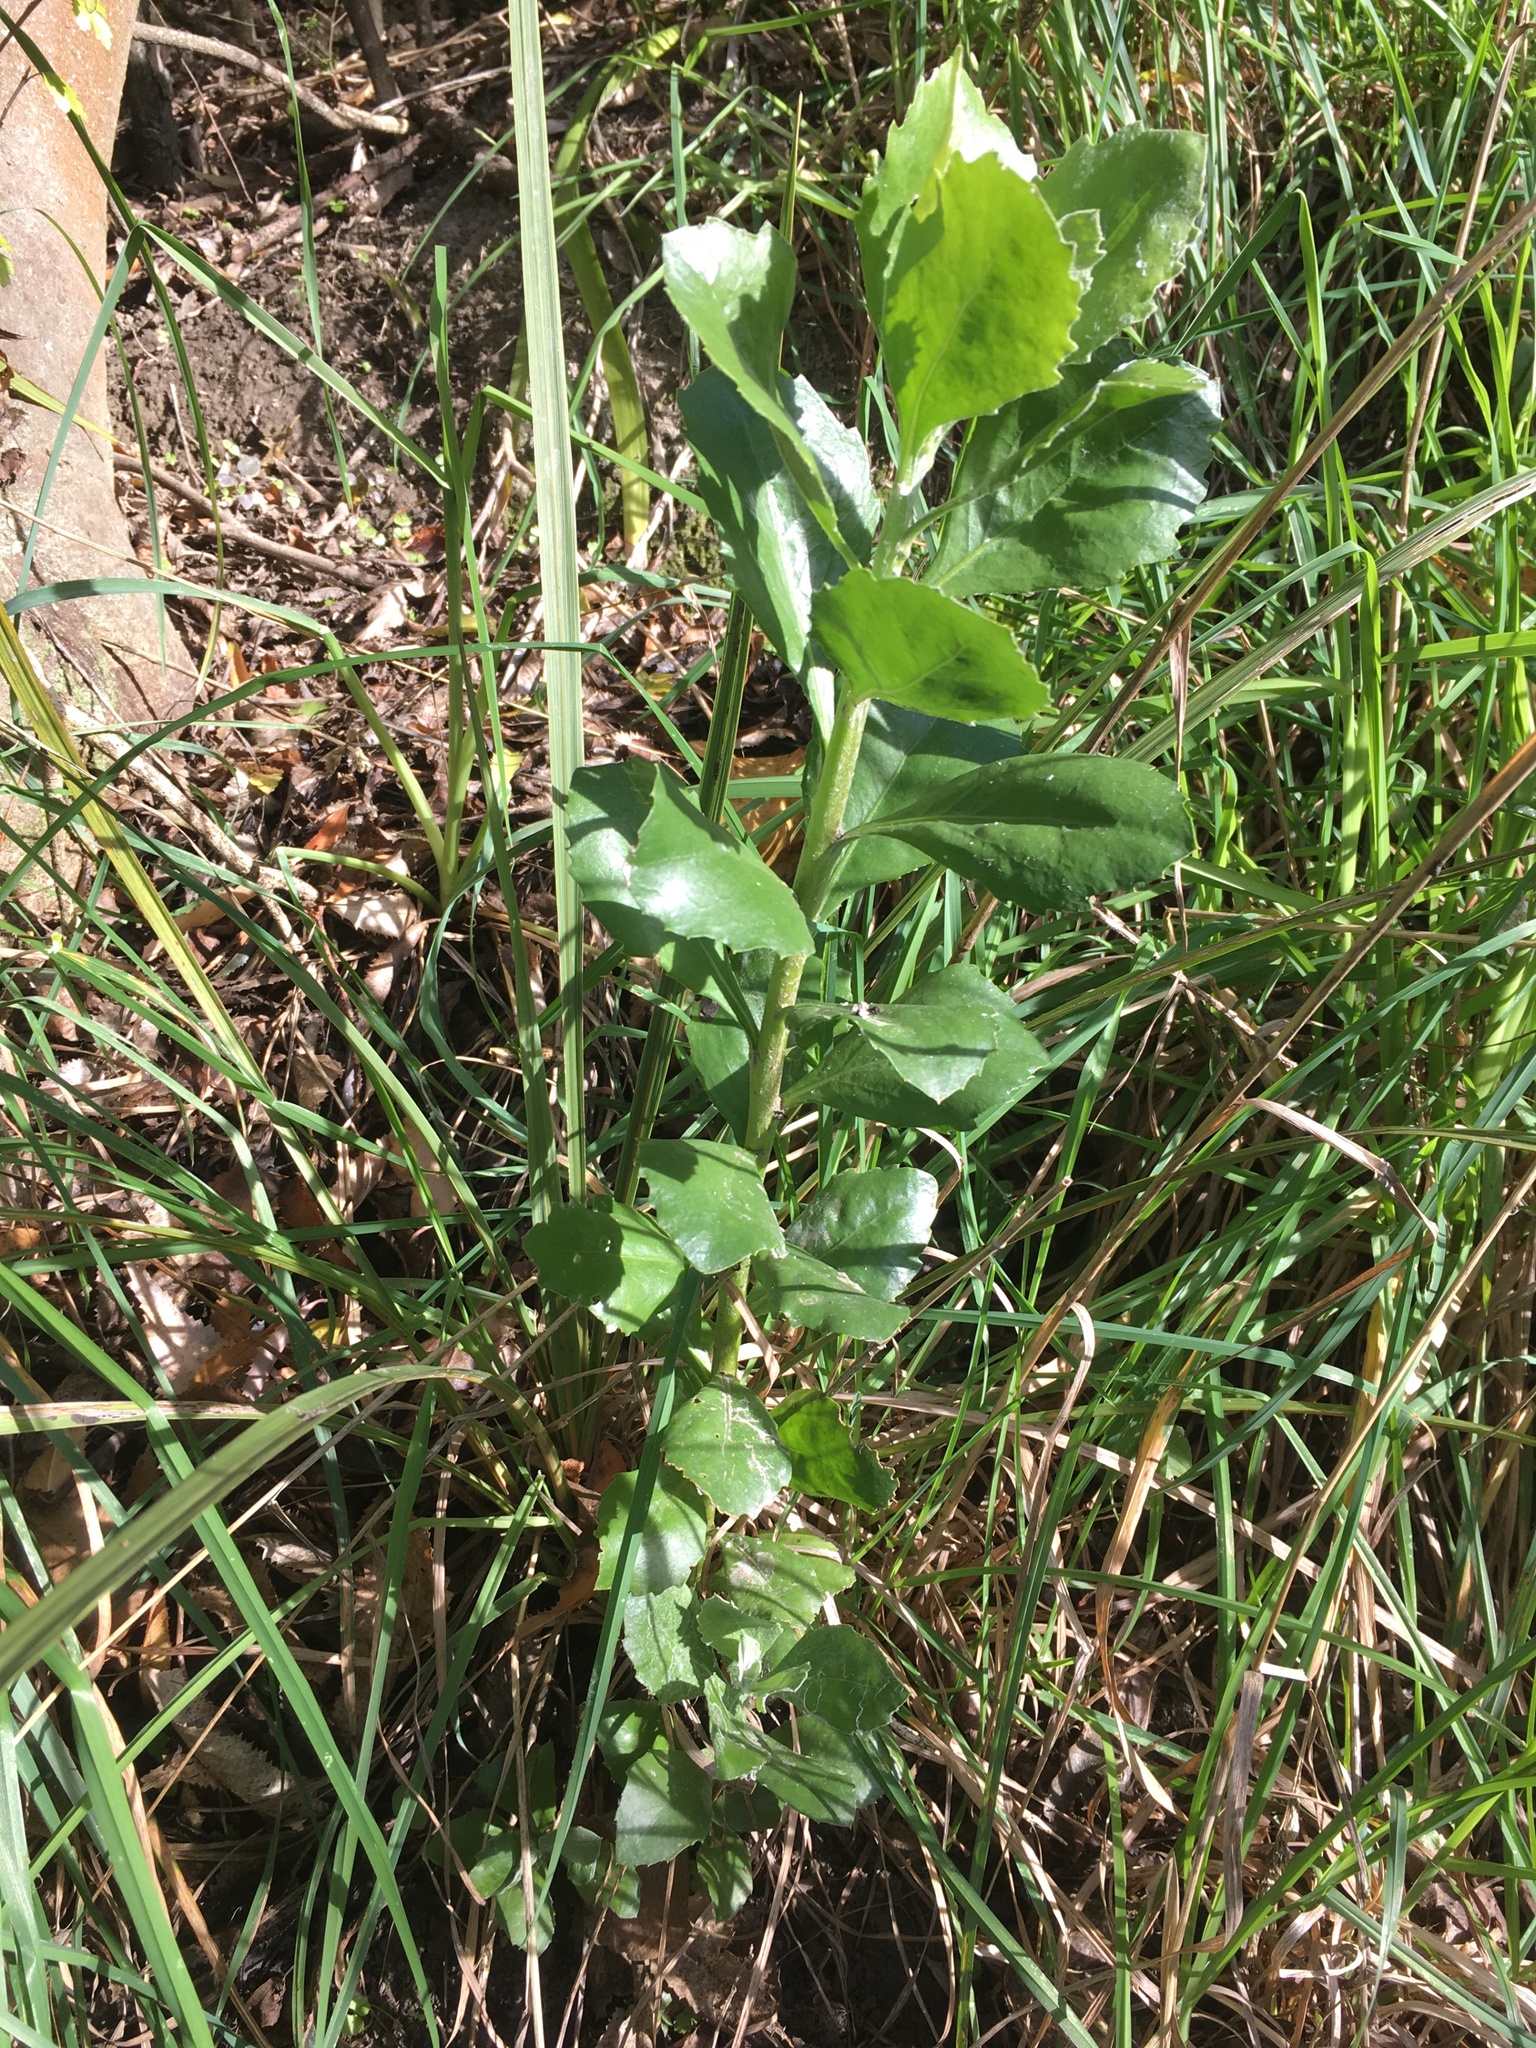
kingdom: Plantae
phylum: Tracheophyta
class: Magnoliopsida
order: Asterales
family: Asteraceae
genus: Osteospermum
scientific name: Osteospermum moniliferum
